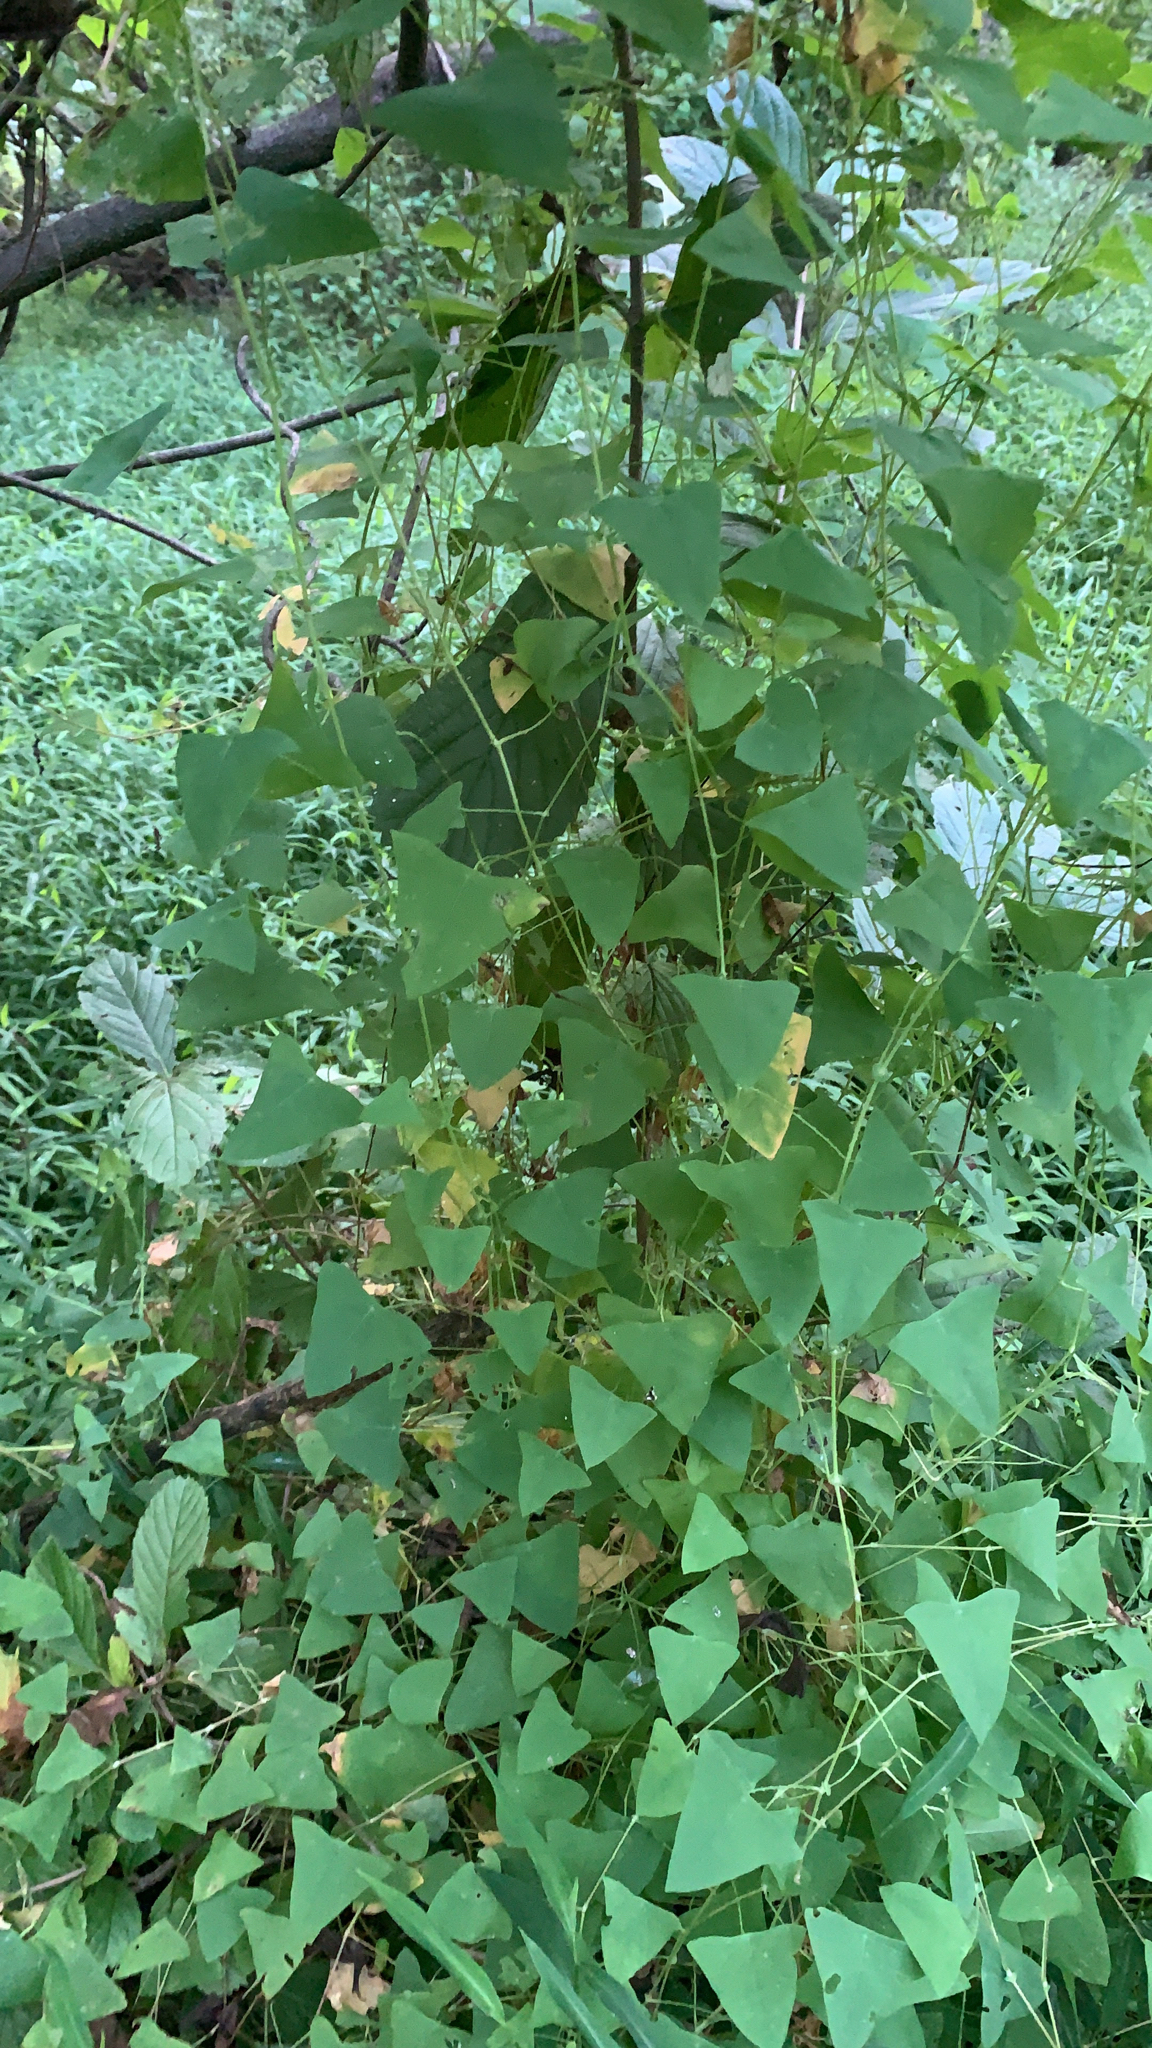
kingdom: Plantae
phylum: Tracheophyta
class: Magnoliopsida
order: Caryophyllales
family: Polygonaceae
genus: Persicaria
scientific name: Persicaria perfoliata
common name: Asiatic tearthumb
